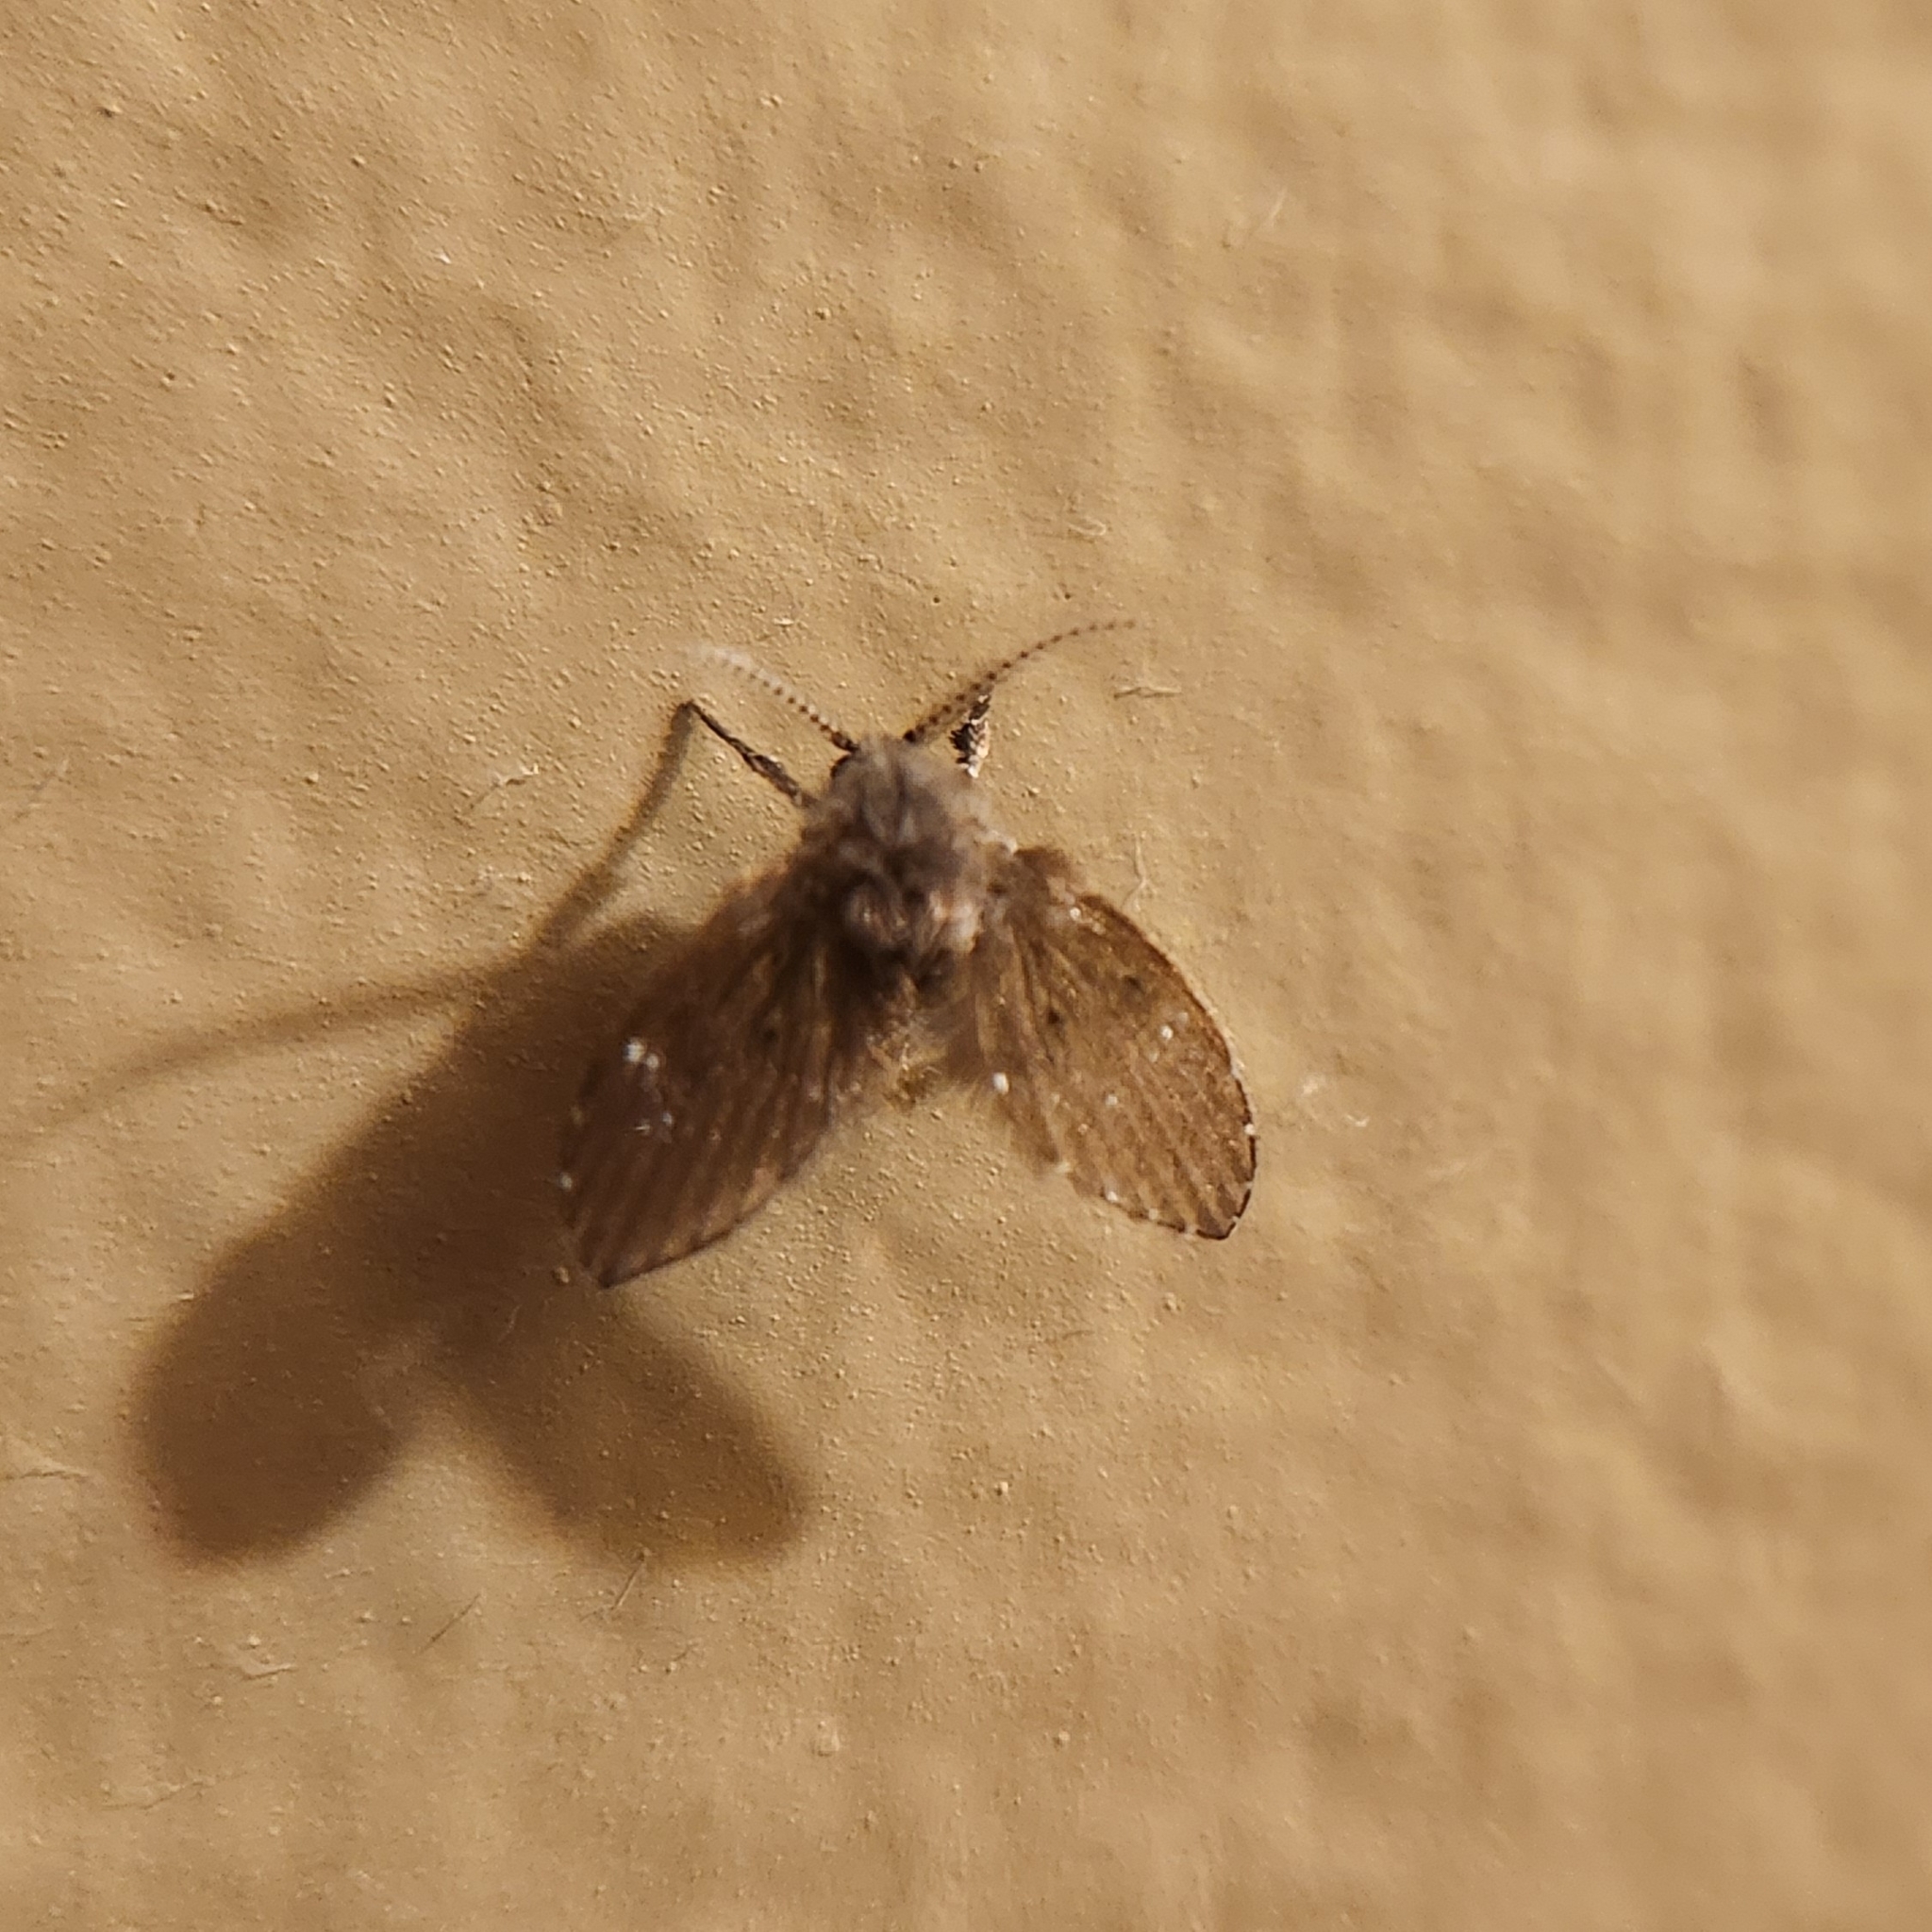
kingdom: Animalia
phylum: Arthropoda
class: Insecta
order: Diptera
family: Psychodidae
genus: Clogmia
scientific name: Clogmia albipunctatus
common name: White-spotted moth fly
